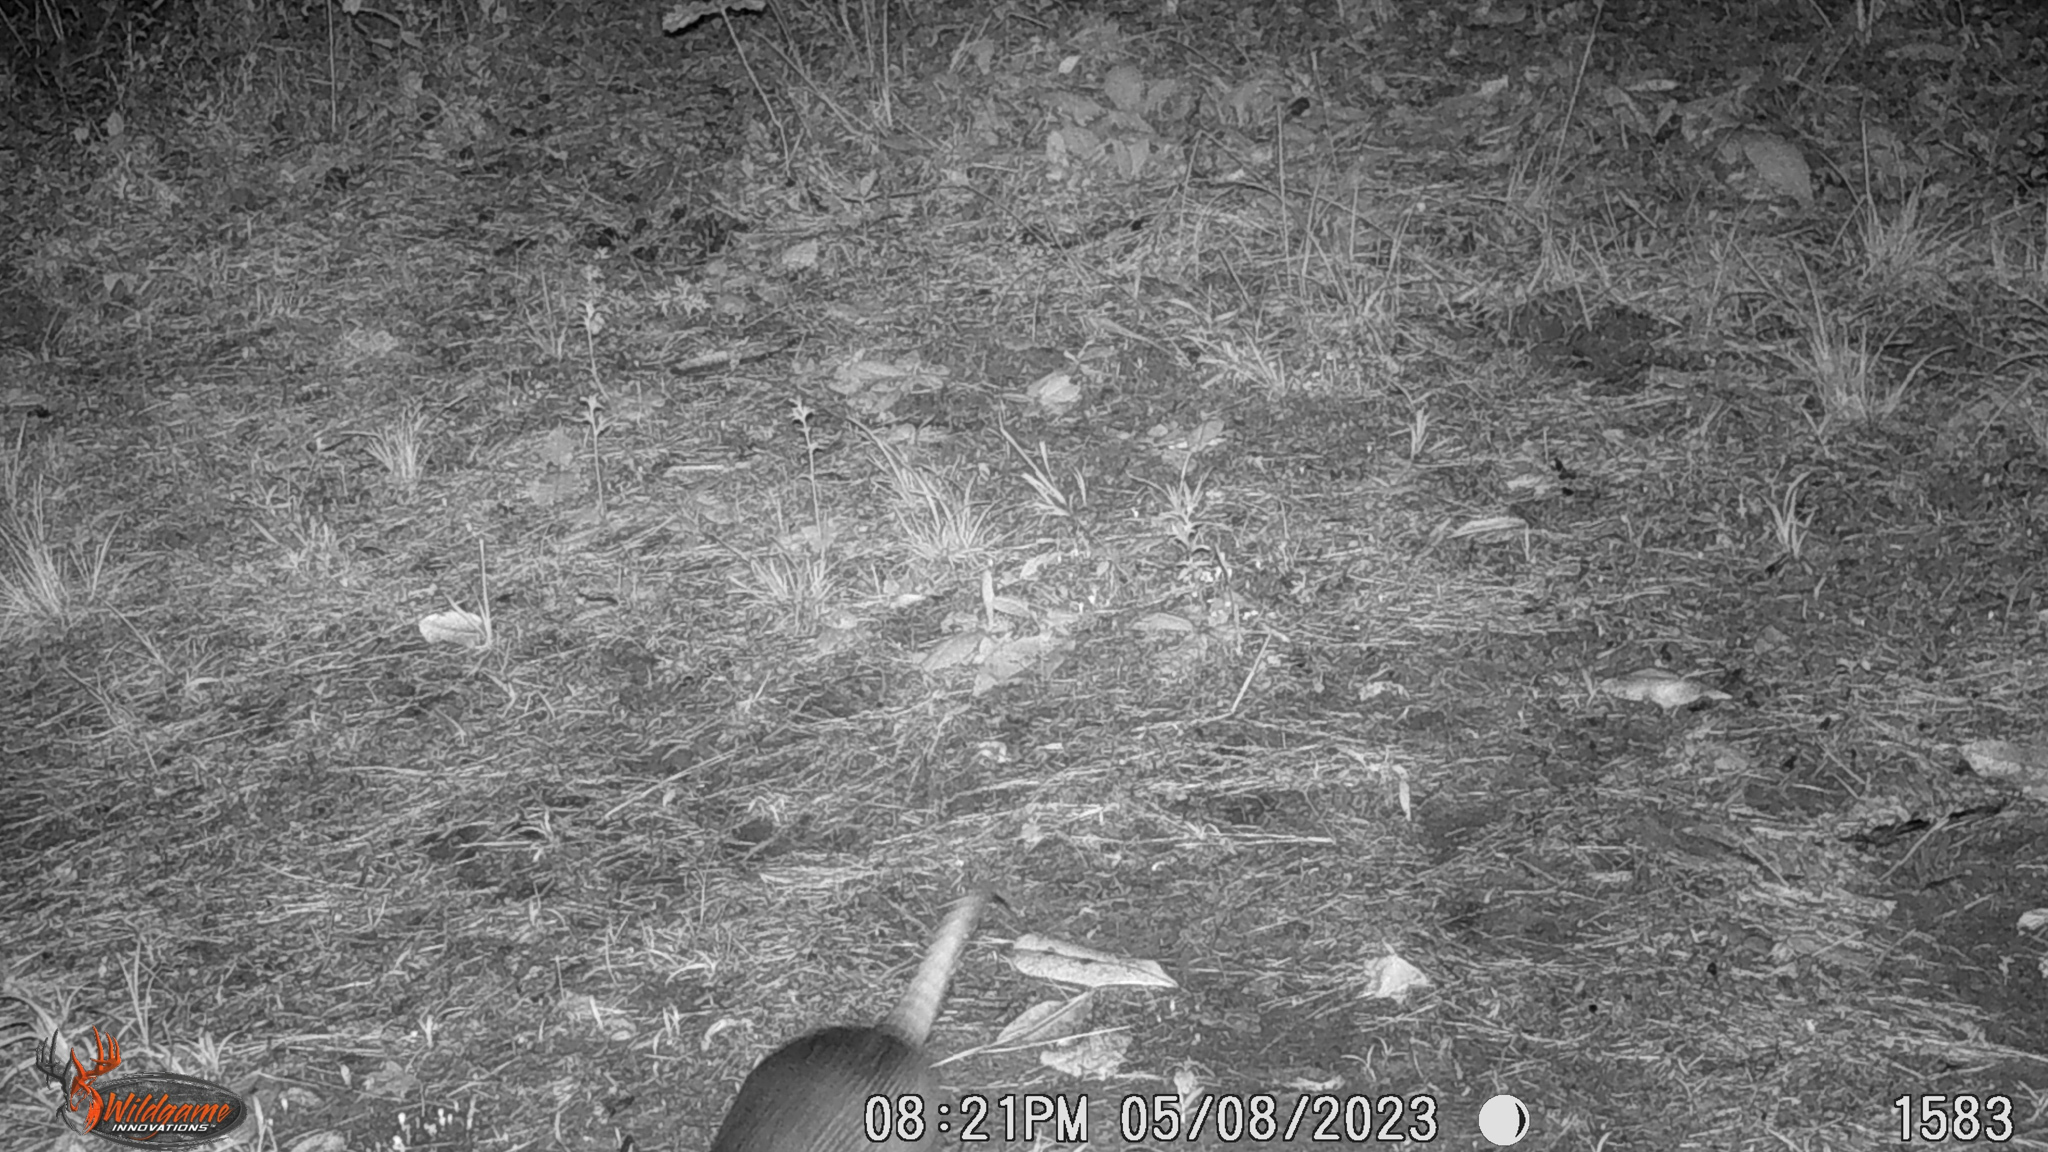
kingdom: Animalia
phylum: Chordata
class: Mammalia
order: Cingulata
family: Dasypodidae
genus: Dasypus
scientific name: Dasypus novemcinctus
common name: Nine-banded armadillo
